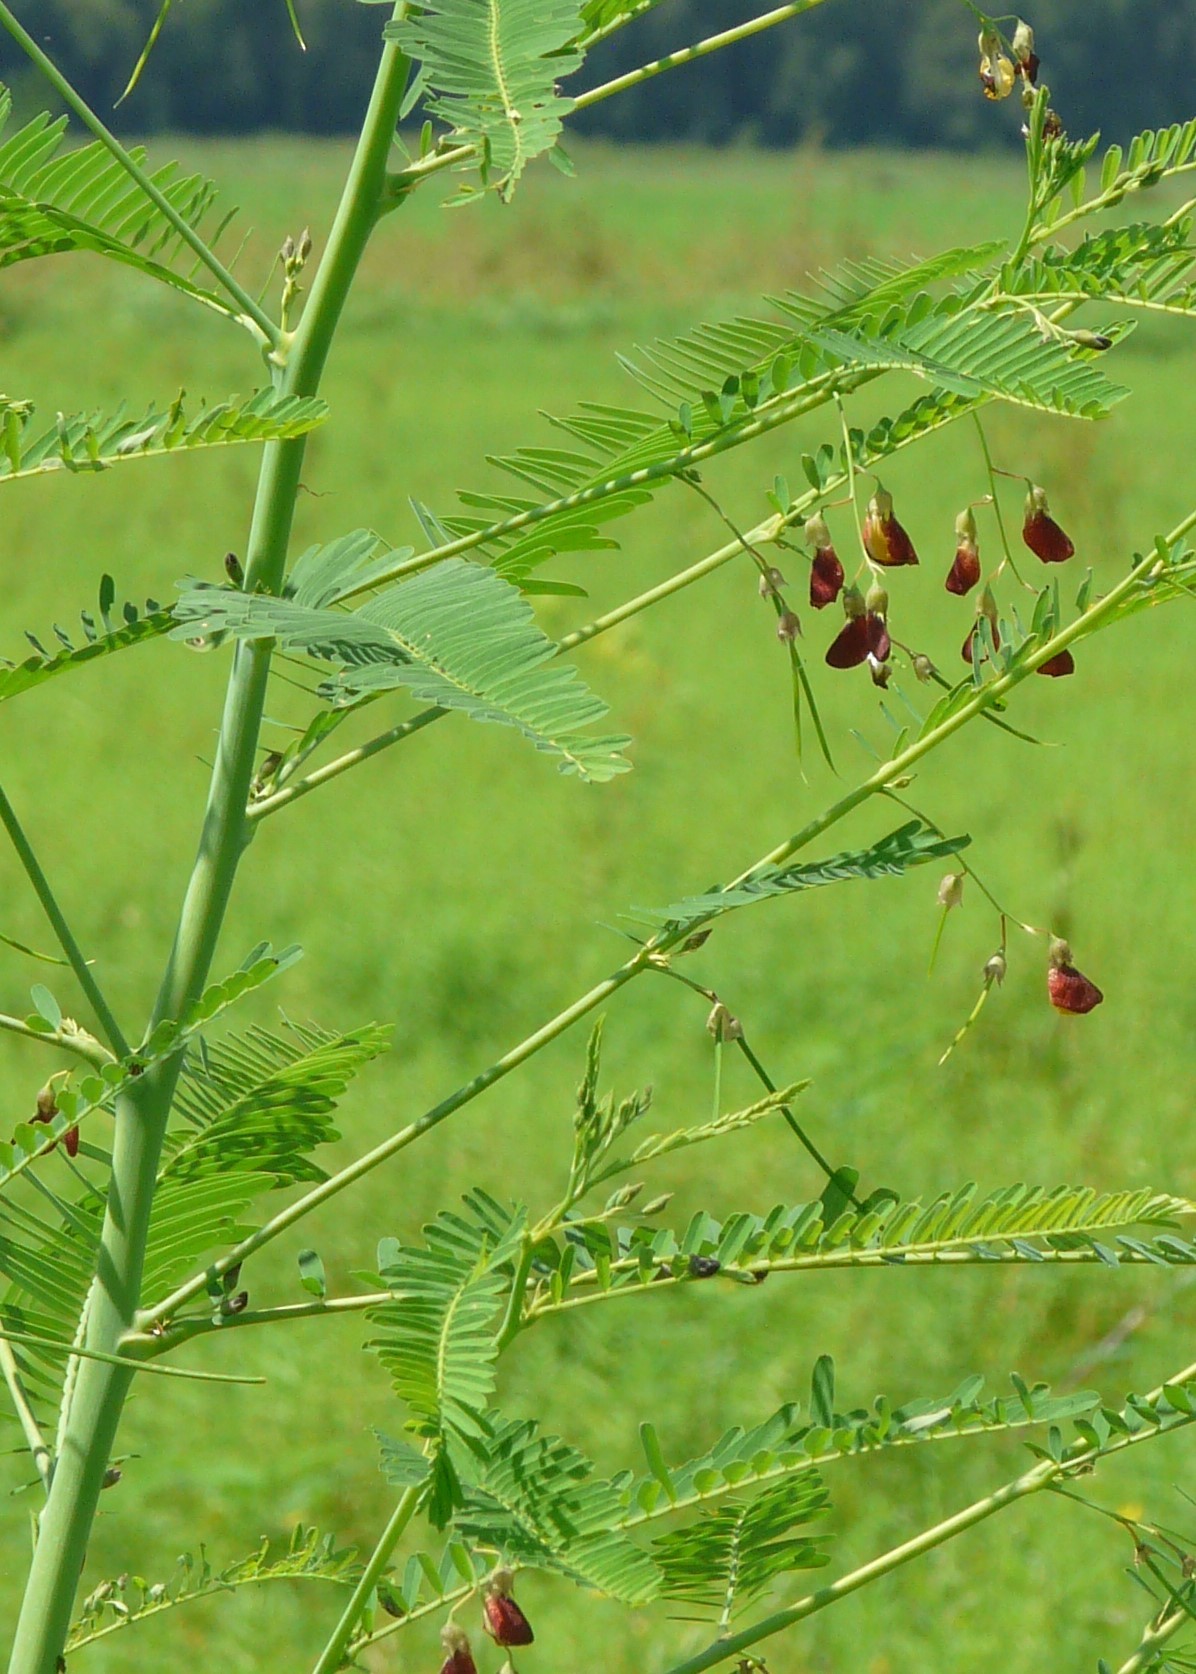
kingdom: Plantae
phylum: Tracheophyta
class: Magnoliopsida
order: Fabales
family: Fabaceae
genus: Sesbania
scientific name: Sesbania herbacea
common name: Bigpod sesbania
